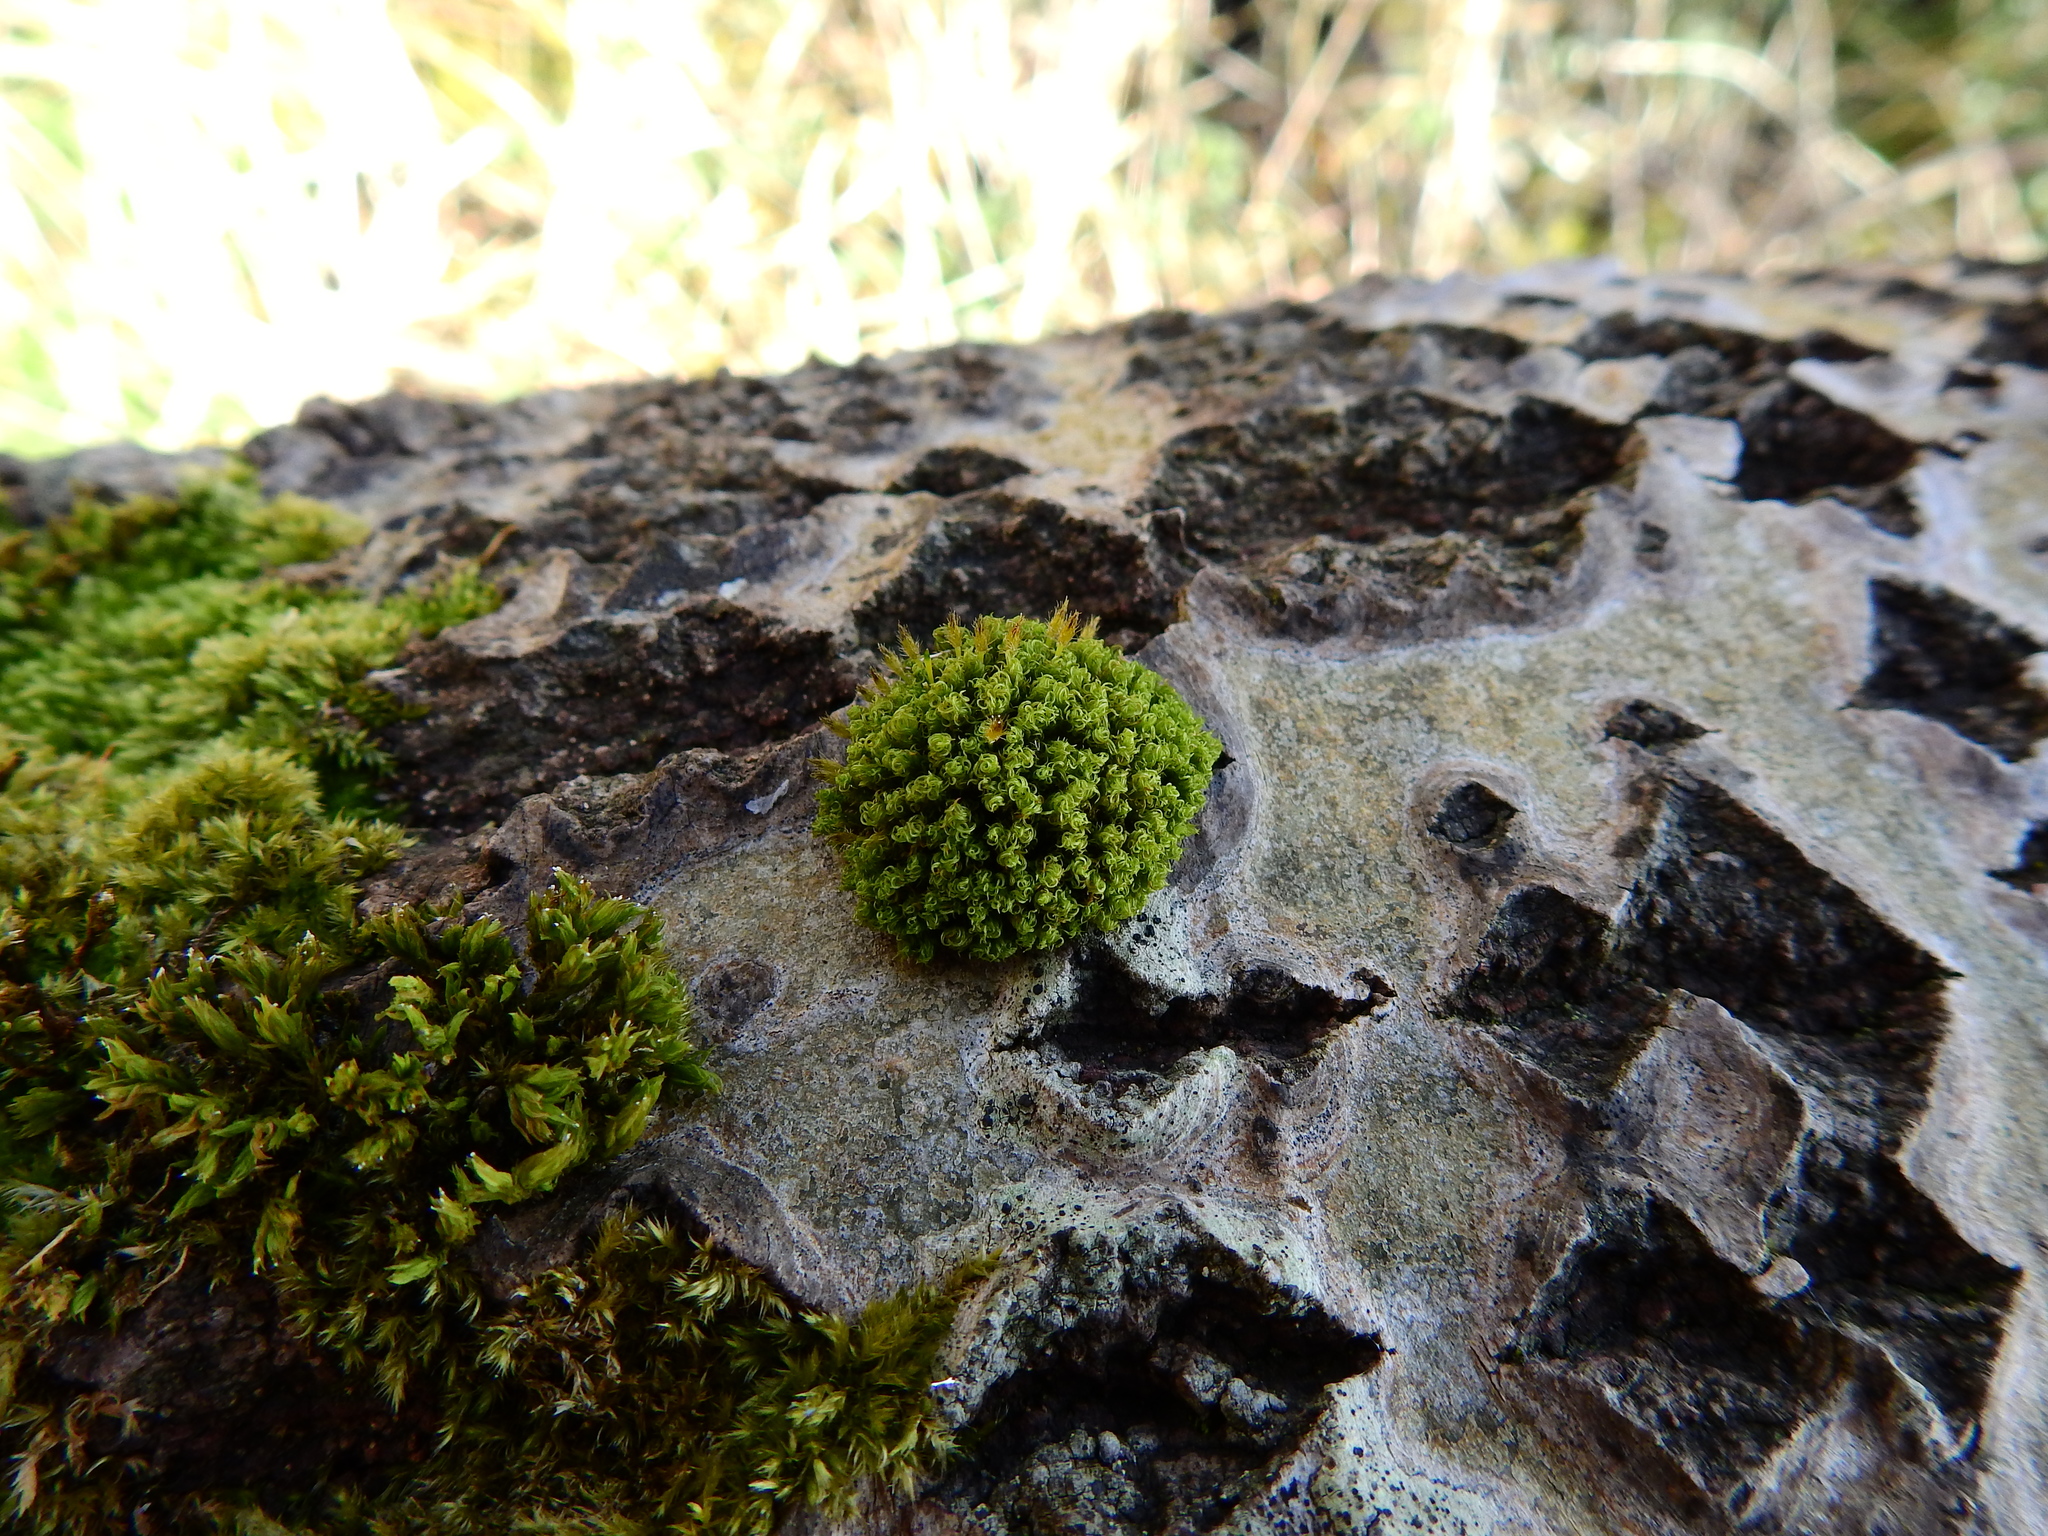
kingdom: Plantae
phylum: Bryophyta
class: Bryopsida
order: Orthotrichales
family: Orthotrichaceae
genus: Ulota
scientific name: Ulota crispa
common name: Crisped pincushion moss
